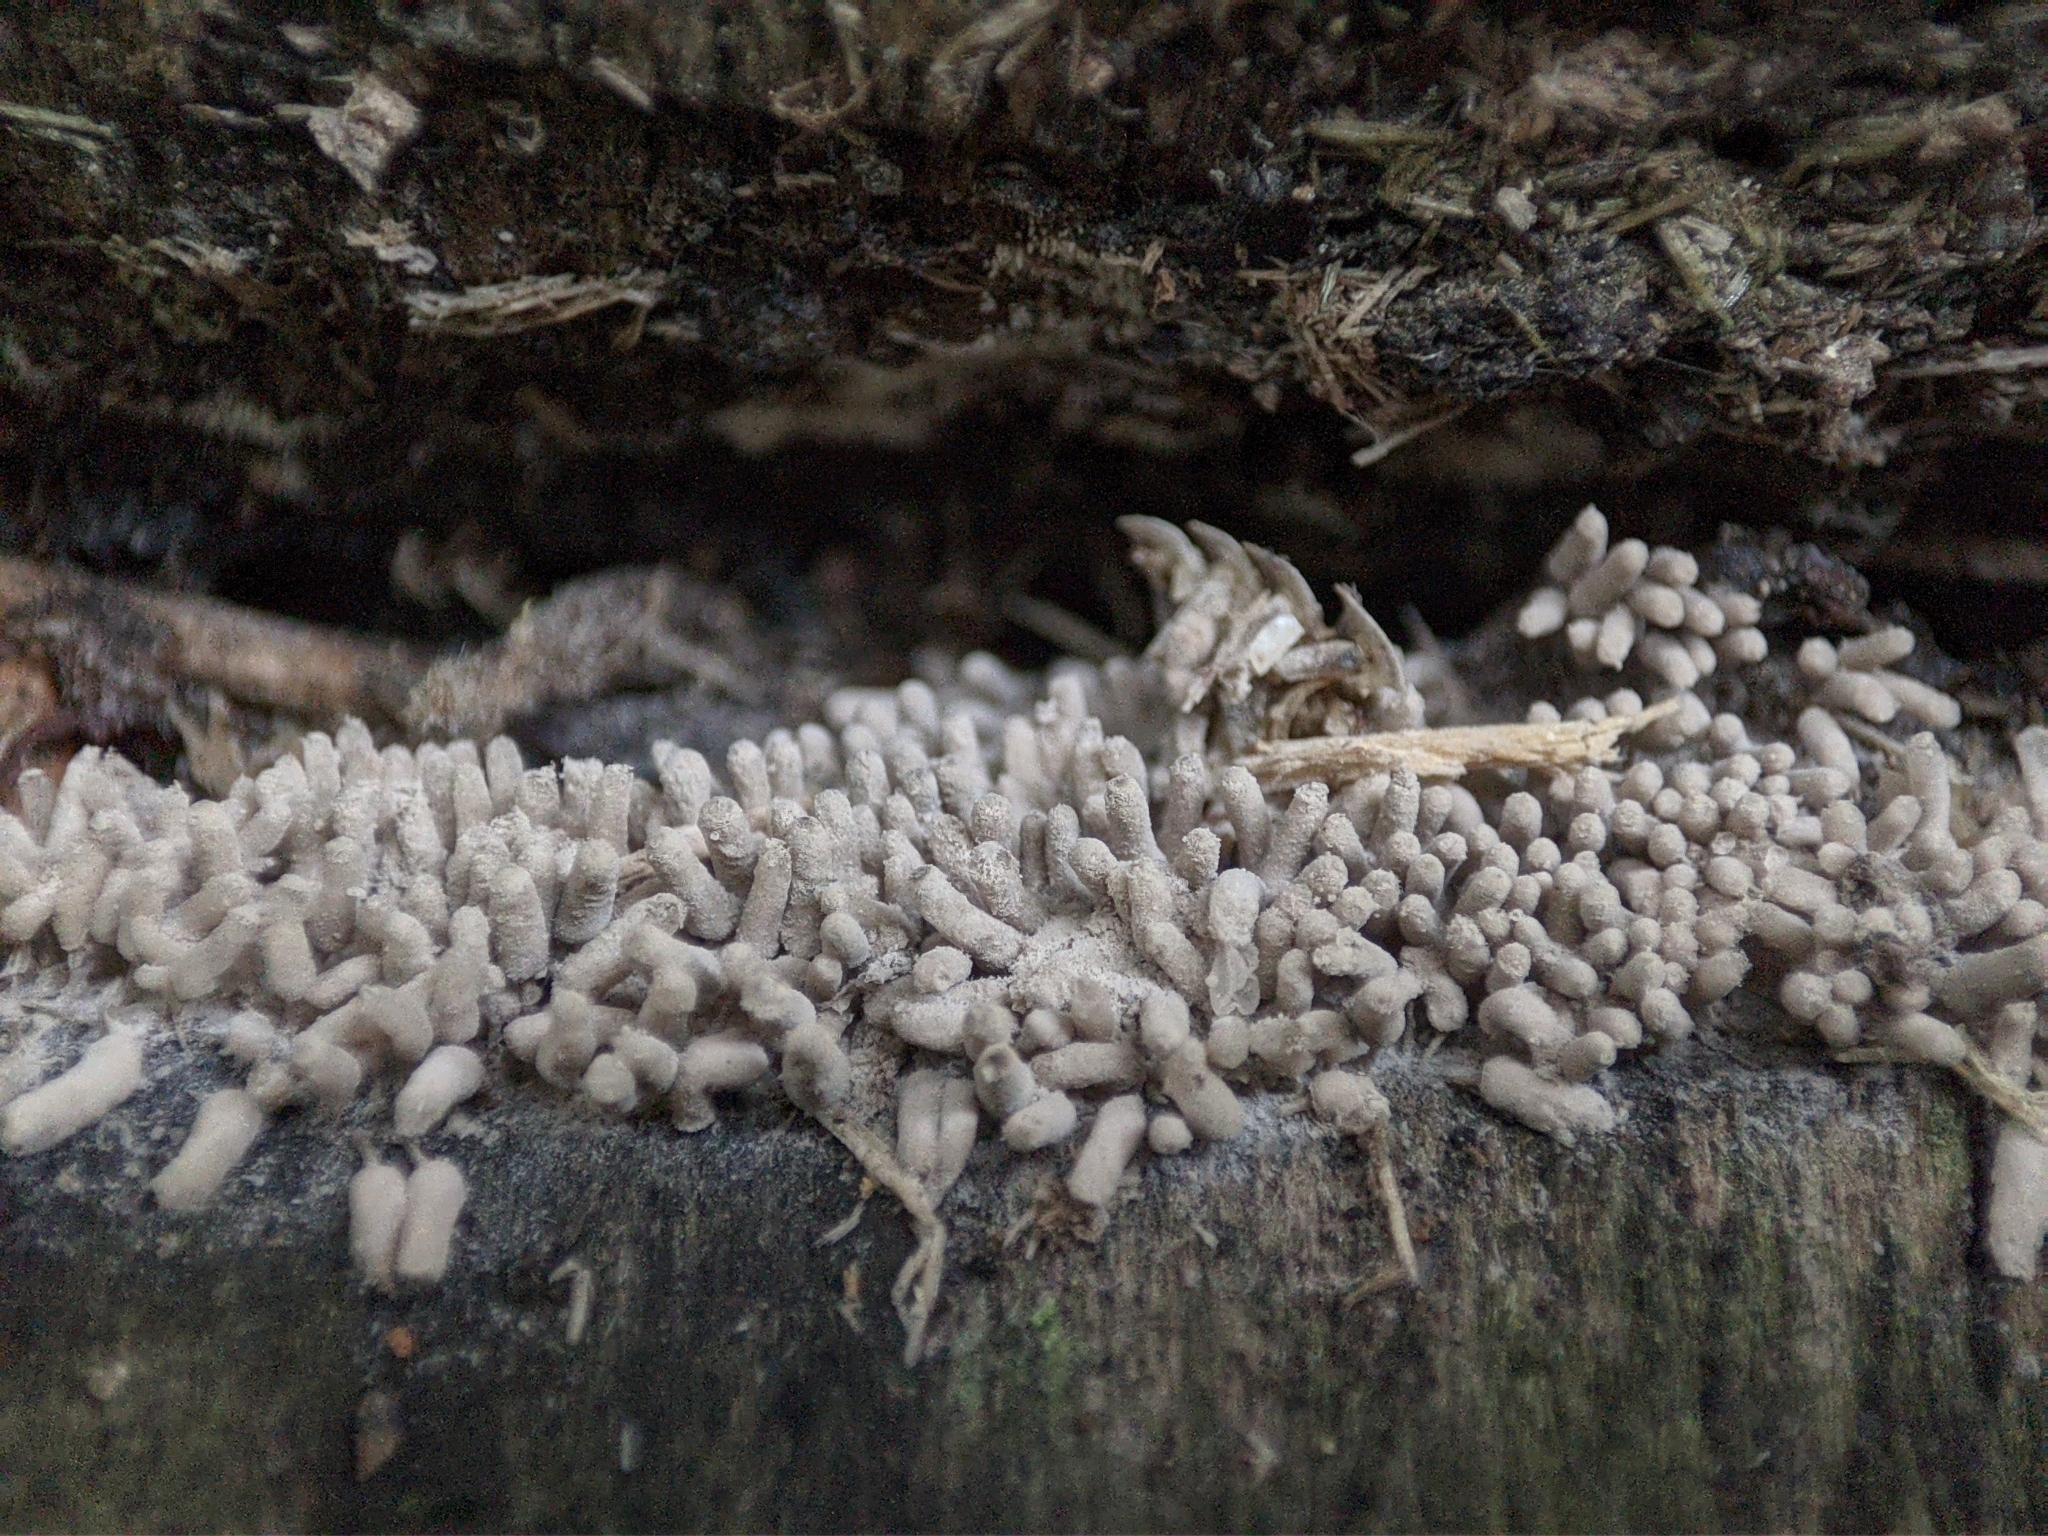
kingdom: Protozoa
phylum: Mycetozoa
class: Myxomycetes
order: Trichiales
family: Arcyriaceae
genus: Arcyria
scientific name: Arcyria cinerea
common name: White carnival candy slime mold
